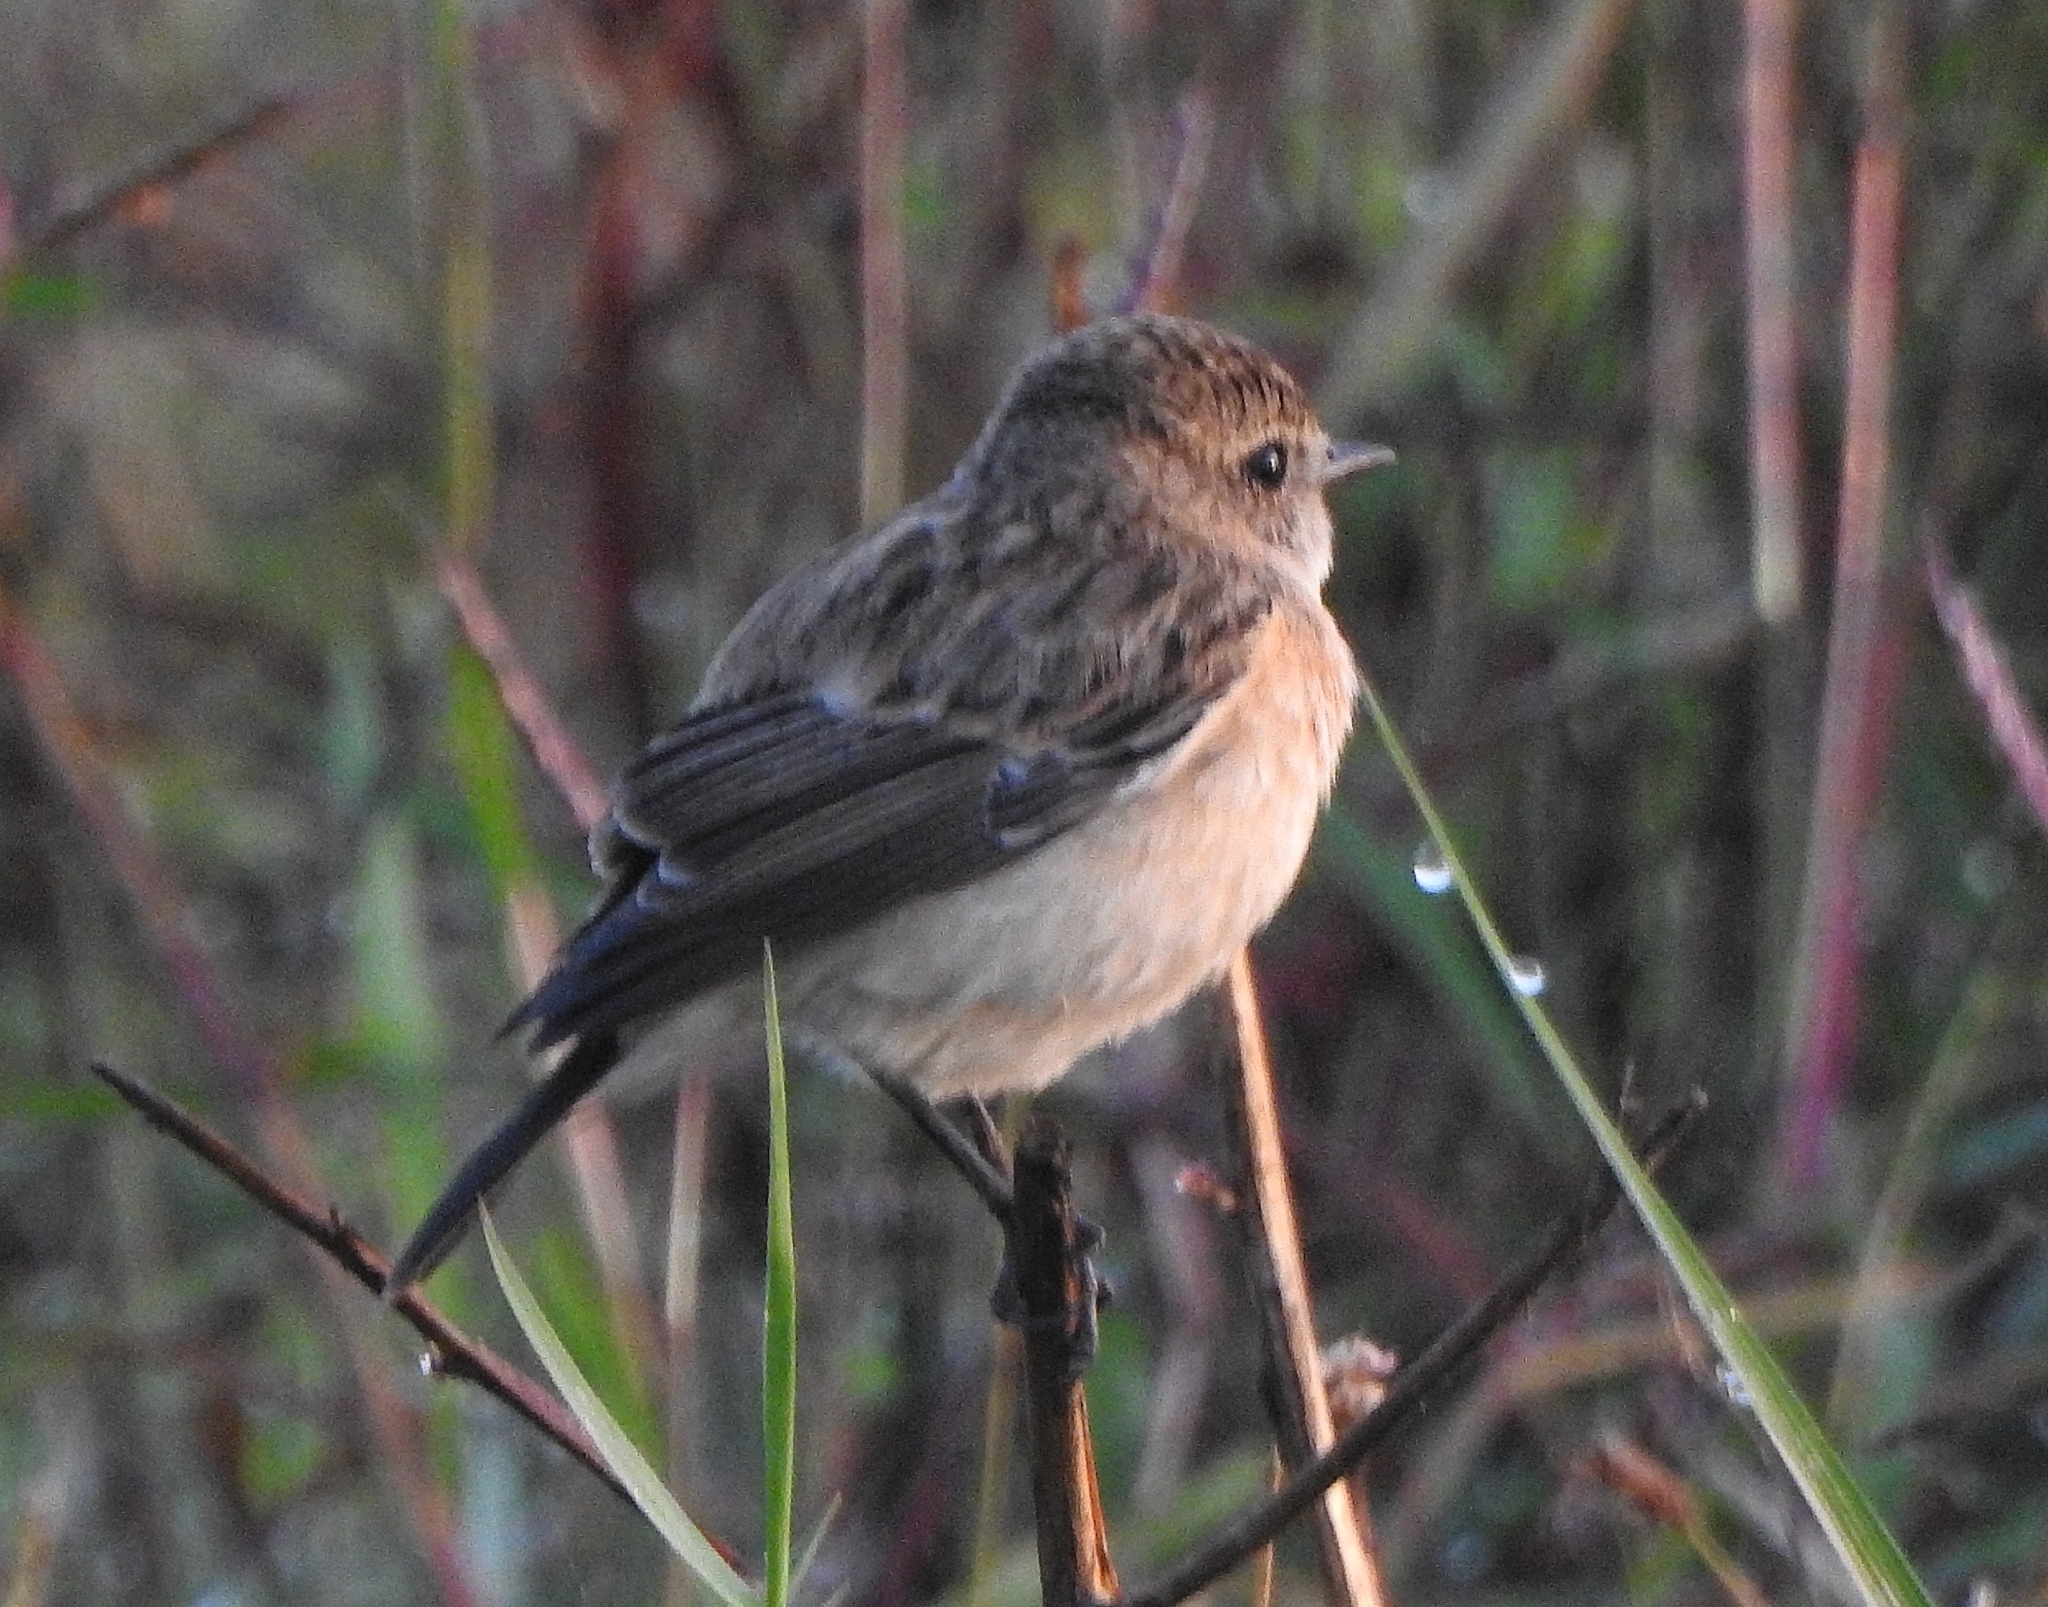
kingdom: Animalia
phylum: Chordata
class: Aves
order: Passeriformes
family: Muscicapidae
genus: Saxicola
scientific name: Saxicola maurus
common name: Siberian stonechat
